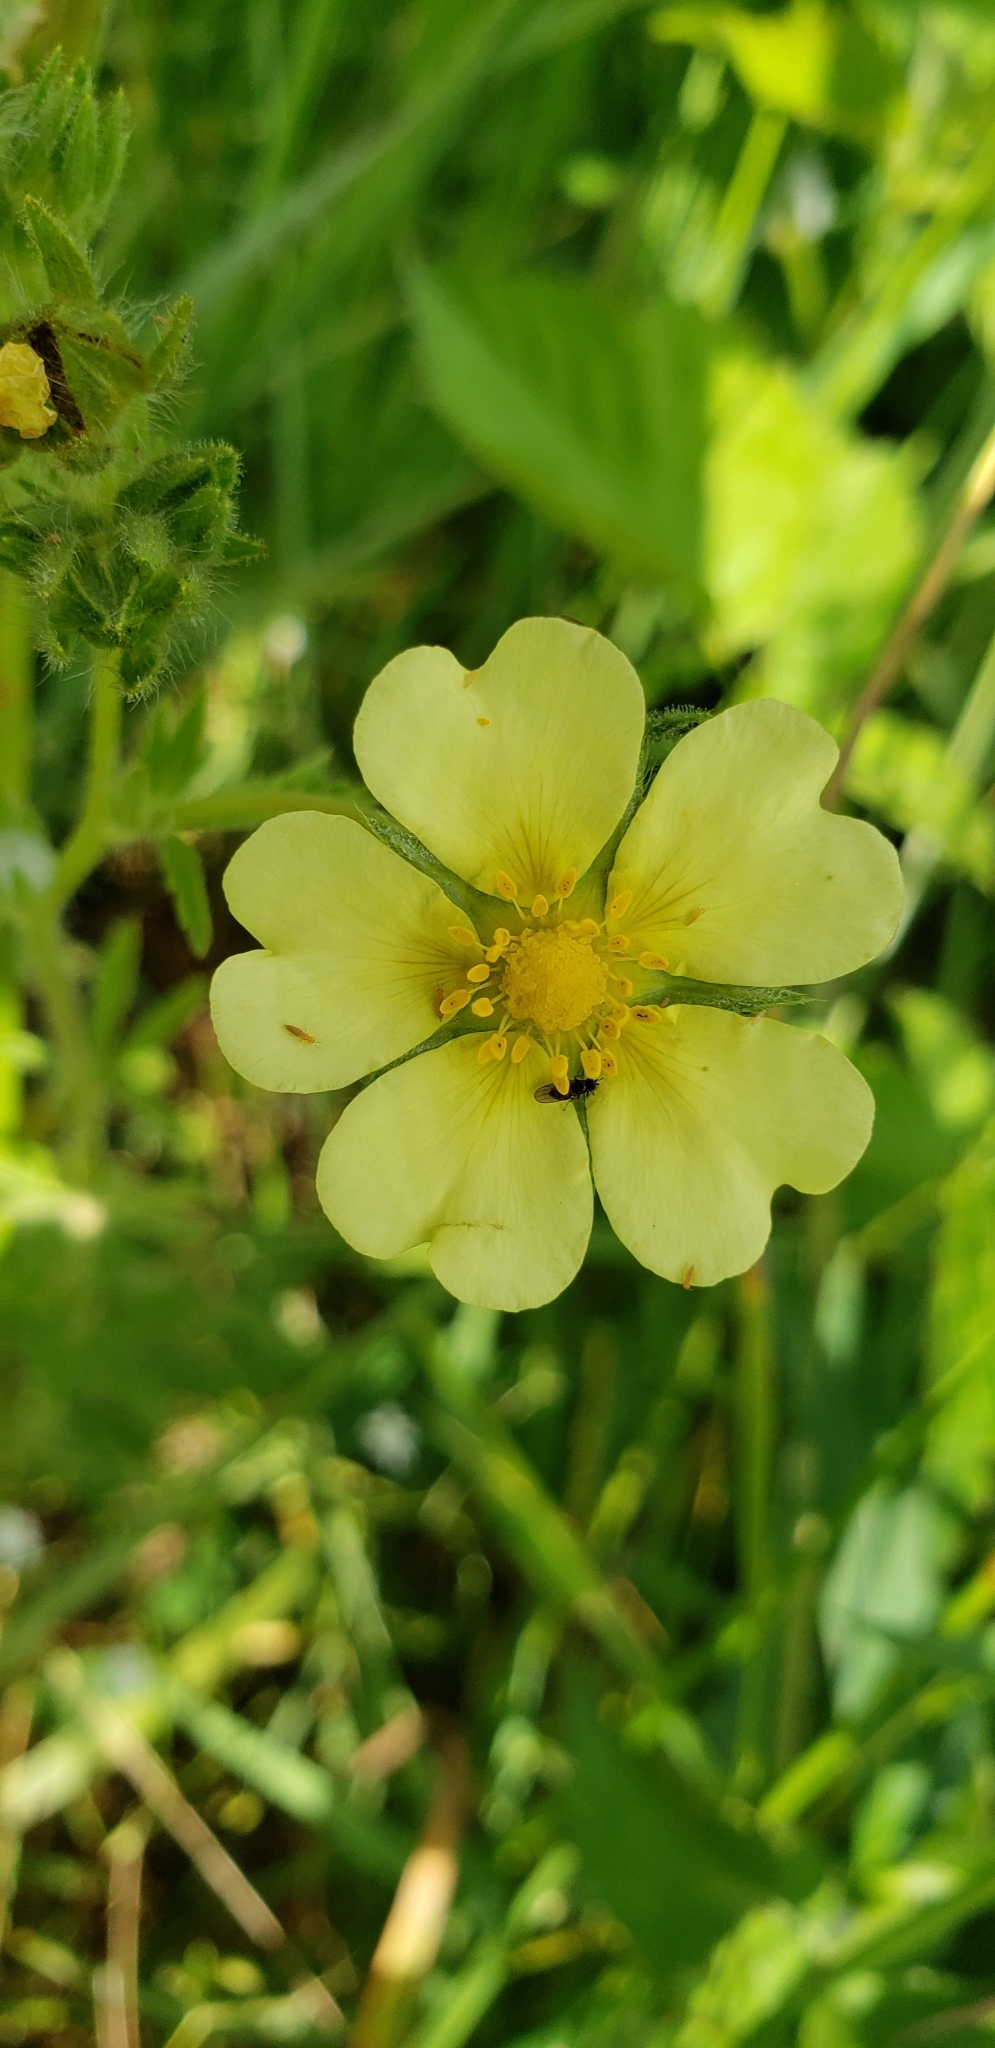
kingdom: Plantae
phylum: Tracheophyta
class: Magnoliopsida
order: Rosales
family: Rosaceae
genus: Potentilla
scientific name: Potentilla recta
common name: Sulphur cinquefoil
